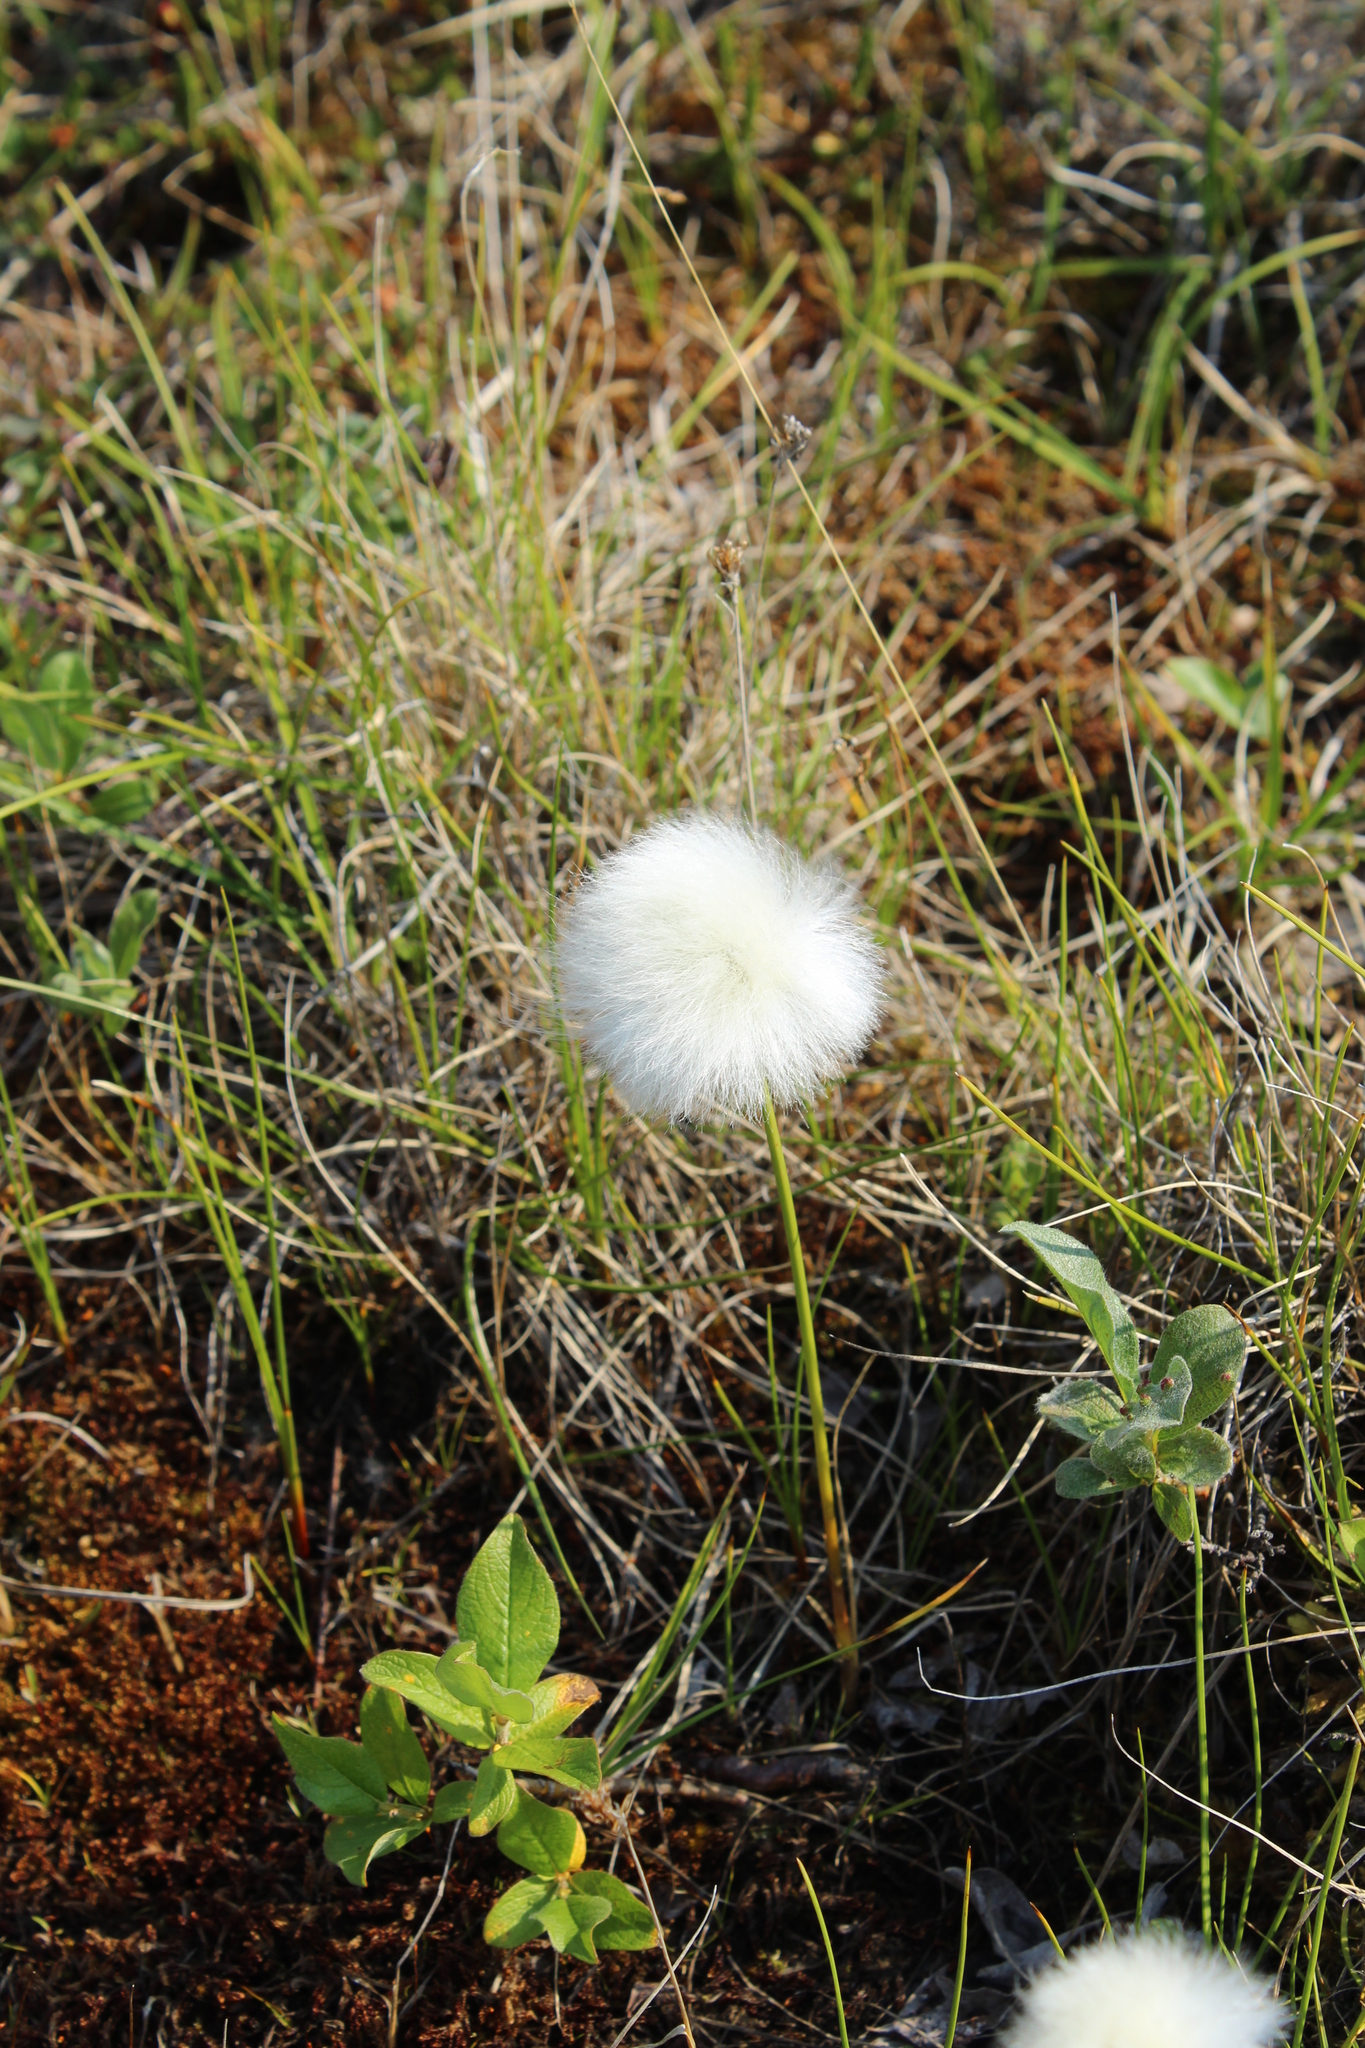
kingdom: Plantae
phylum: Tracheophyta
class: Liliopsida
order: Poales
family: Cyperaceae
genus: Eriophorum
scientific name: Eriophorum scheuchzeri
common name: Scheuchzer's cottongrass
